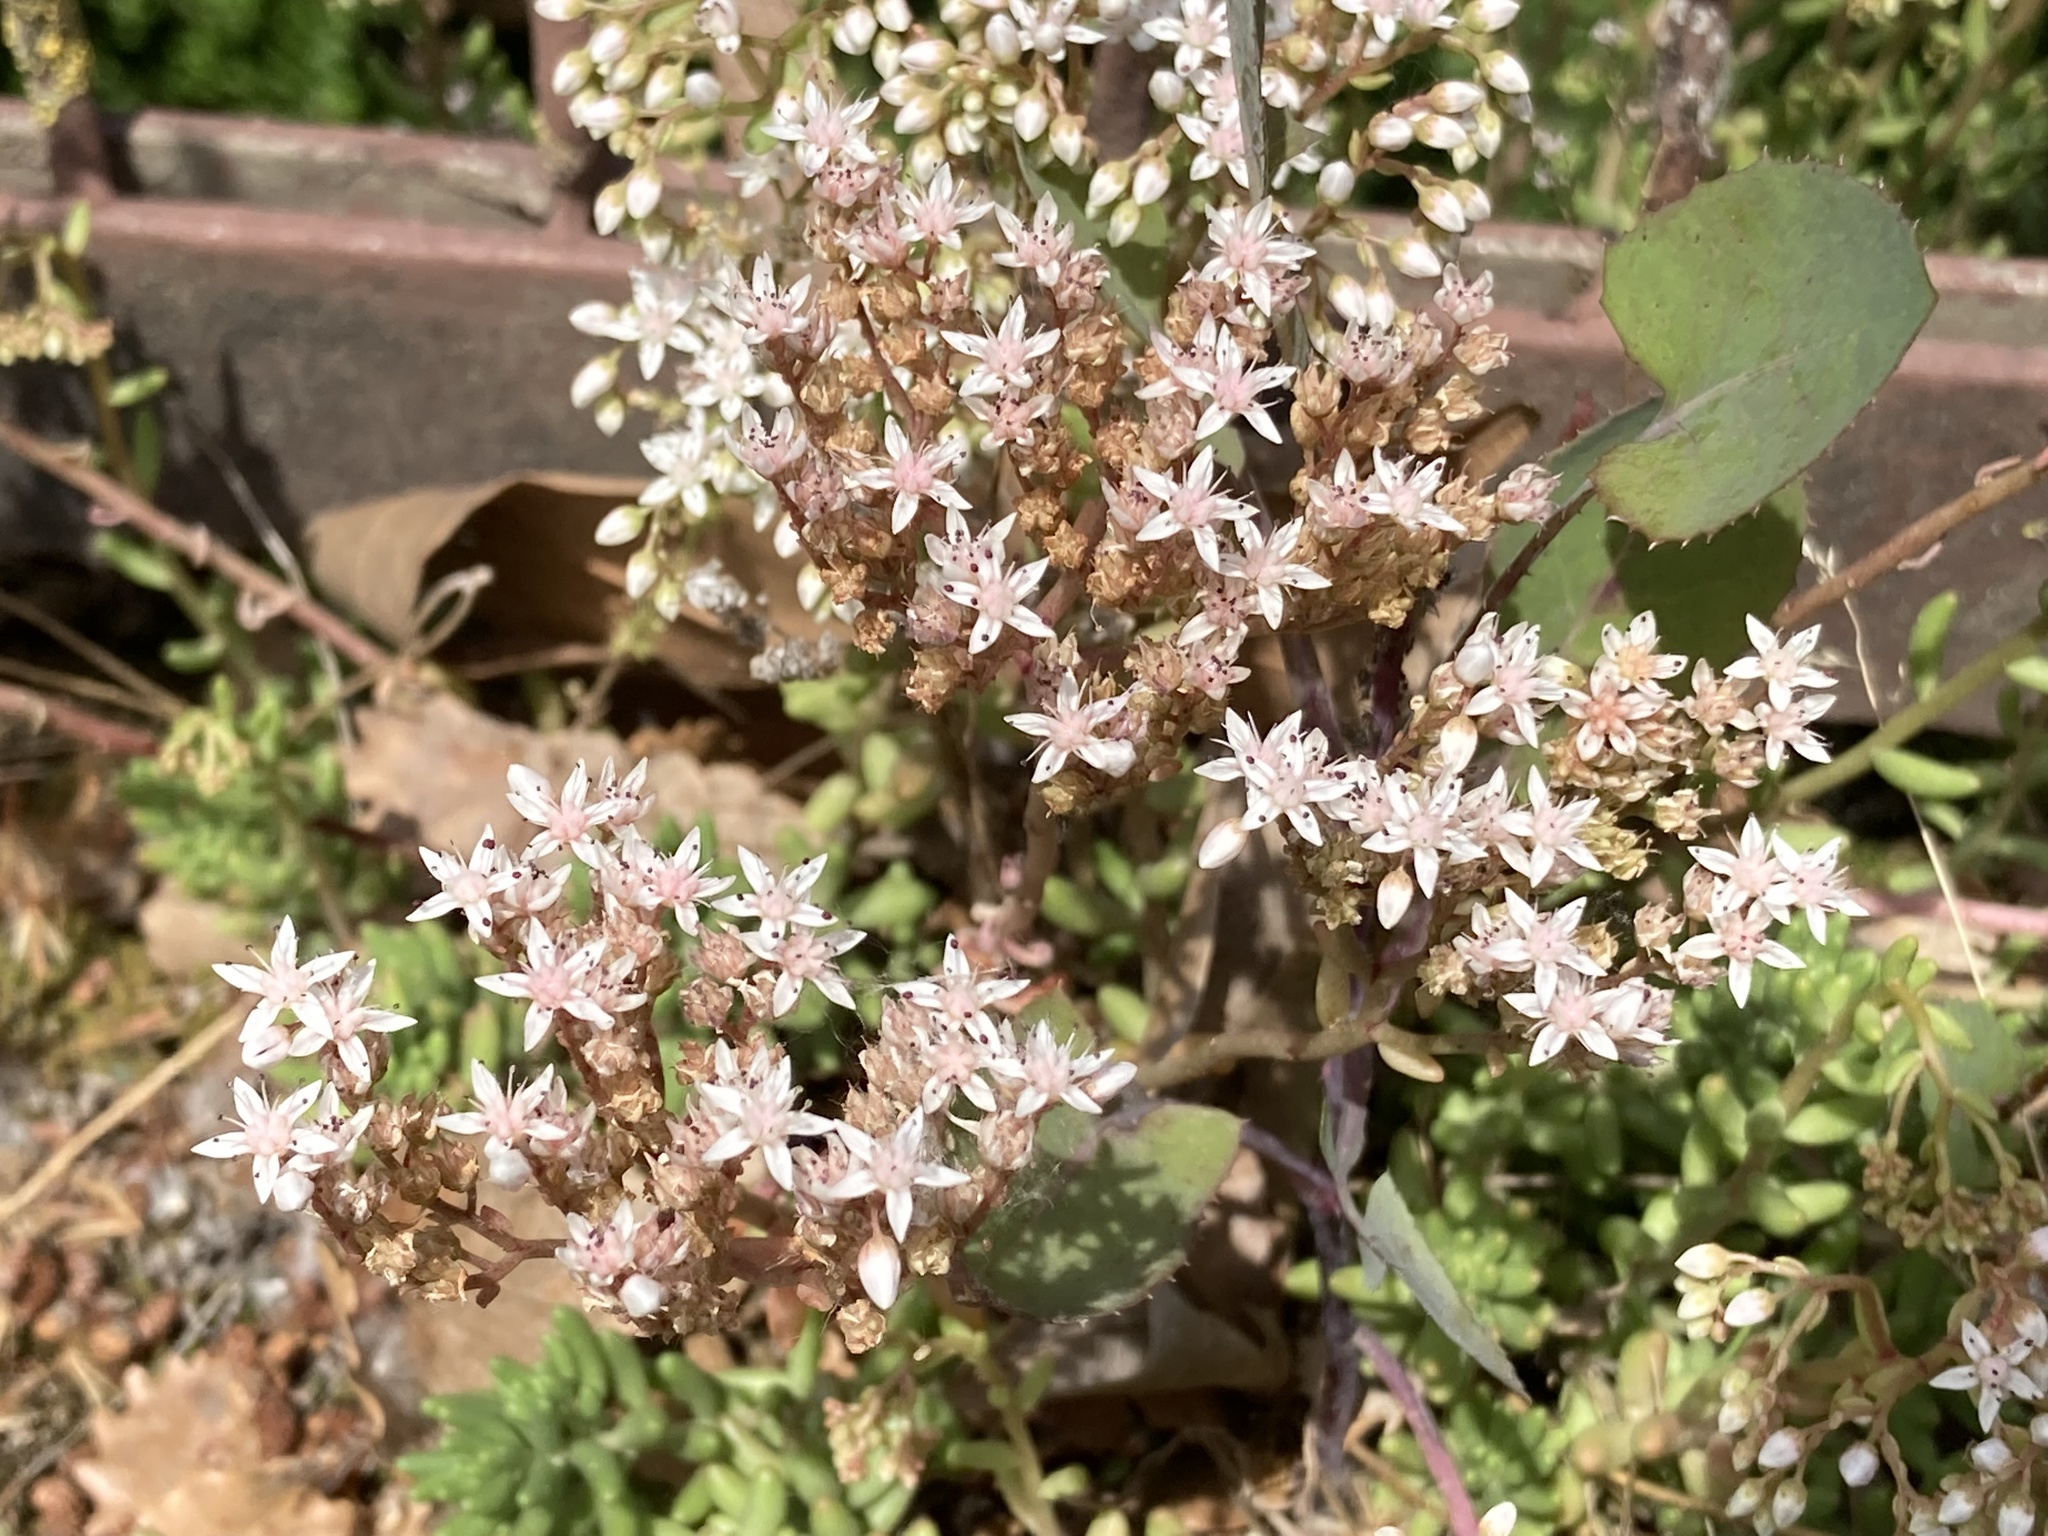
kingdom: Plantae
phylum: Tracheophyta
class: Magnoliopsida
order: Saxifragales
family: Crassulaceae
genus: Sedum
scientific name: Sedum album
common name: White stonecrop
